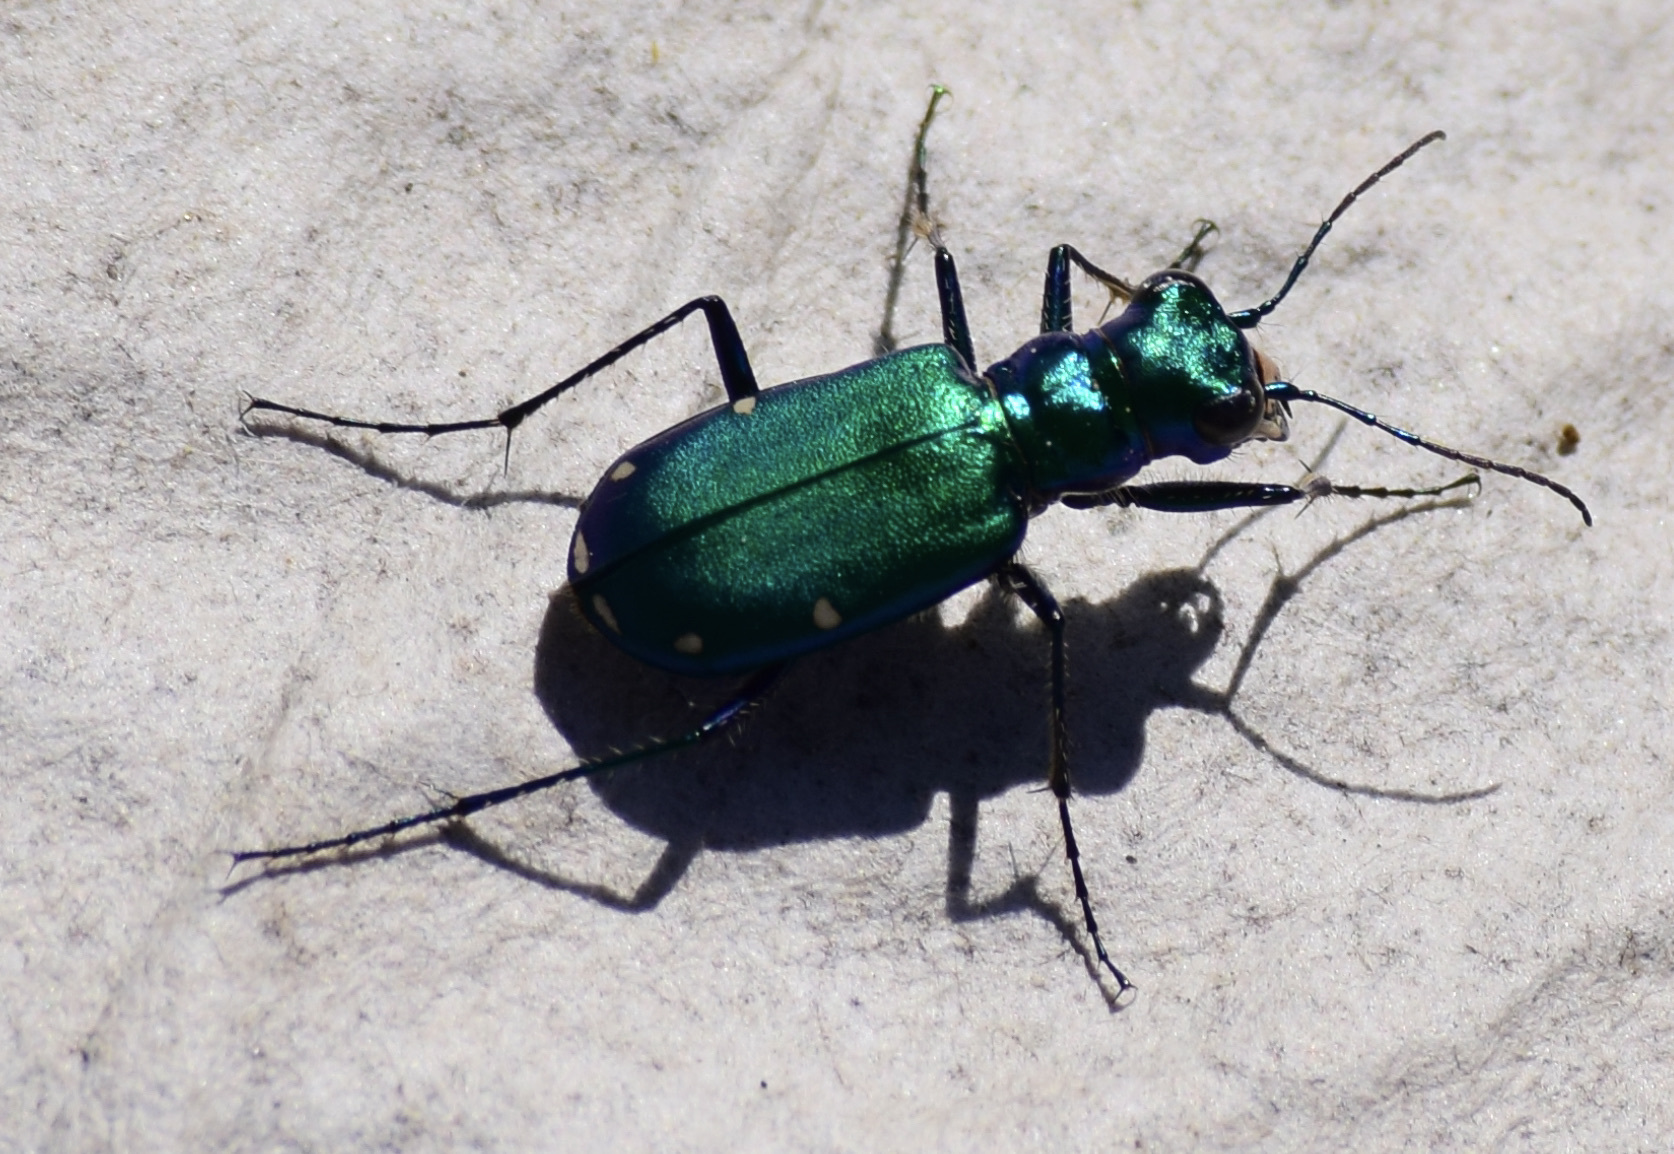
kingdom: Animalia
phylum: Arthropoda
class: Insecta
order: Coleoptera
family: Carabidae
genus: Cicindela
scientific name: Cicindela sexguttata
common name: Six-spotted tiger beetle
